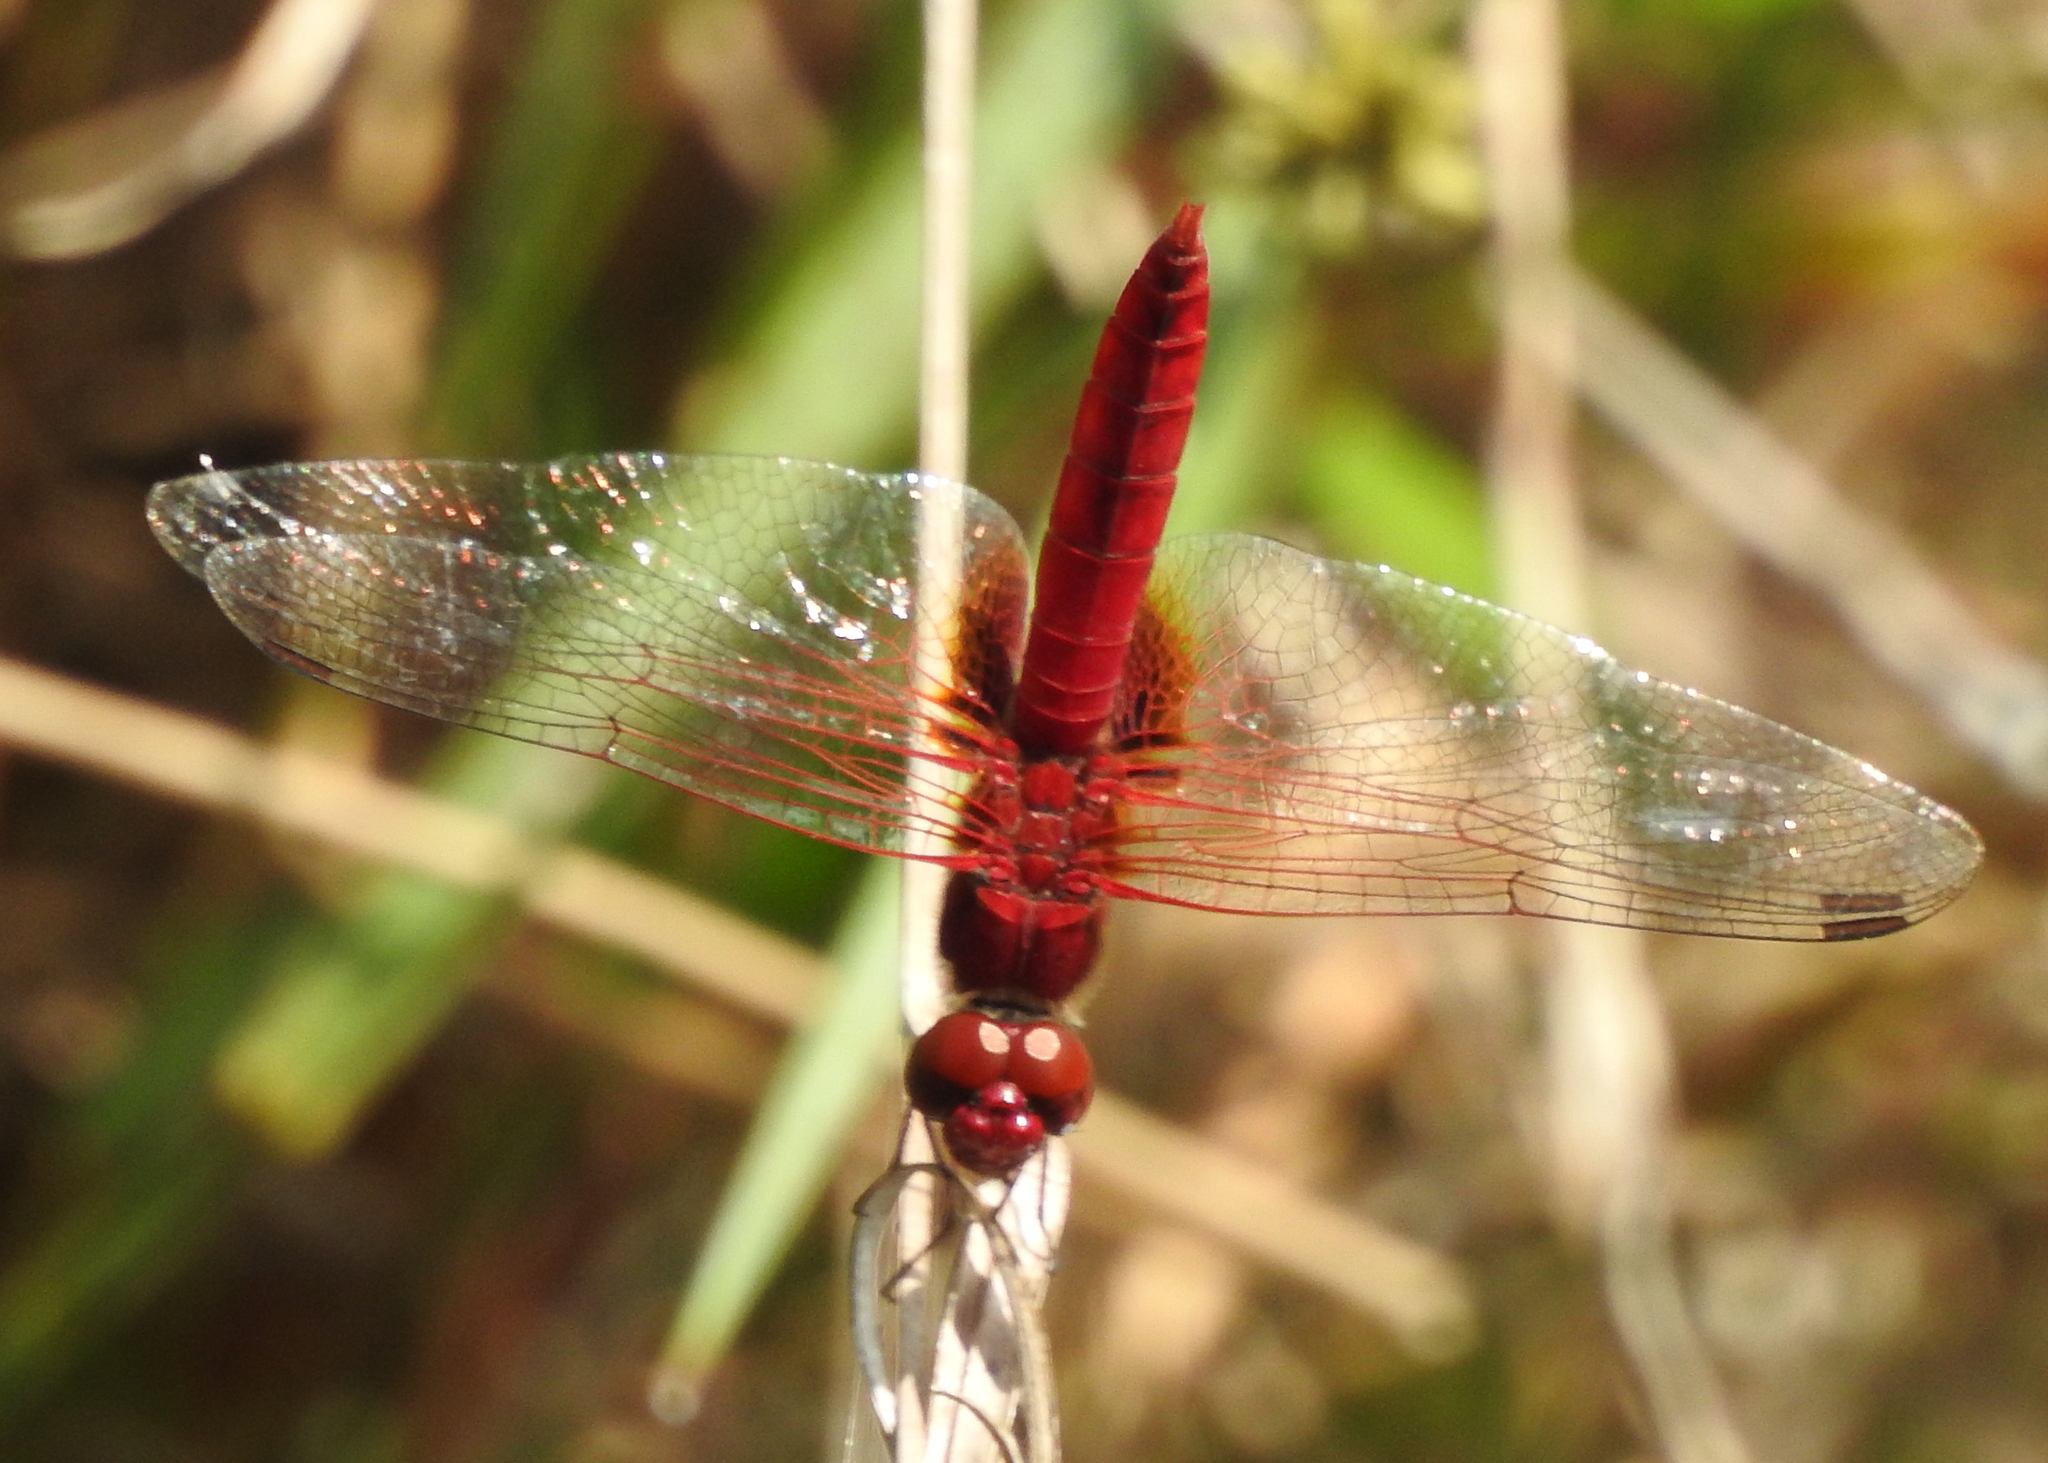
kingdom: Animalia
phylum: Arthropoda
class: Insecta
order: Odonata
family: Libellulidae
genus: Urothemis
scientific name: Urothemis signata
